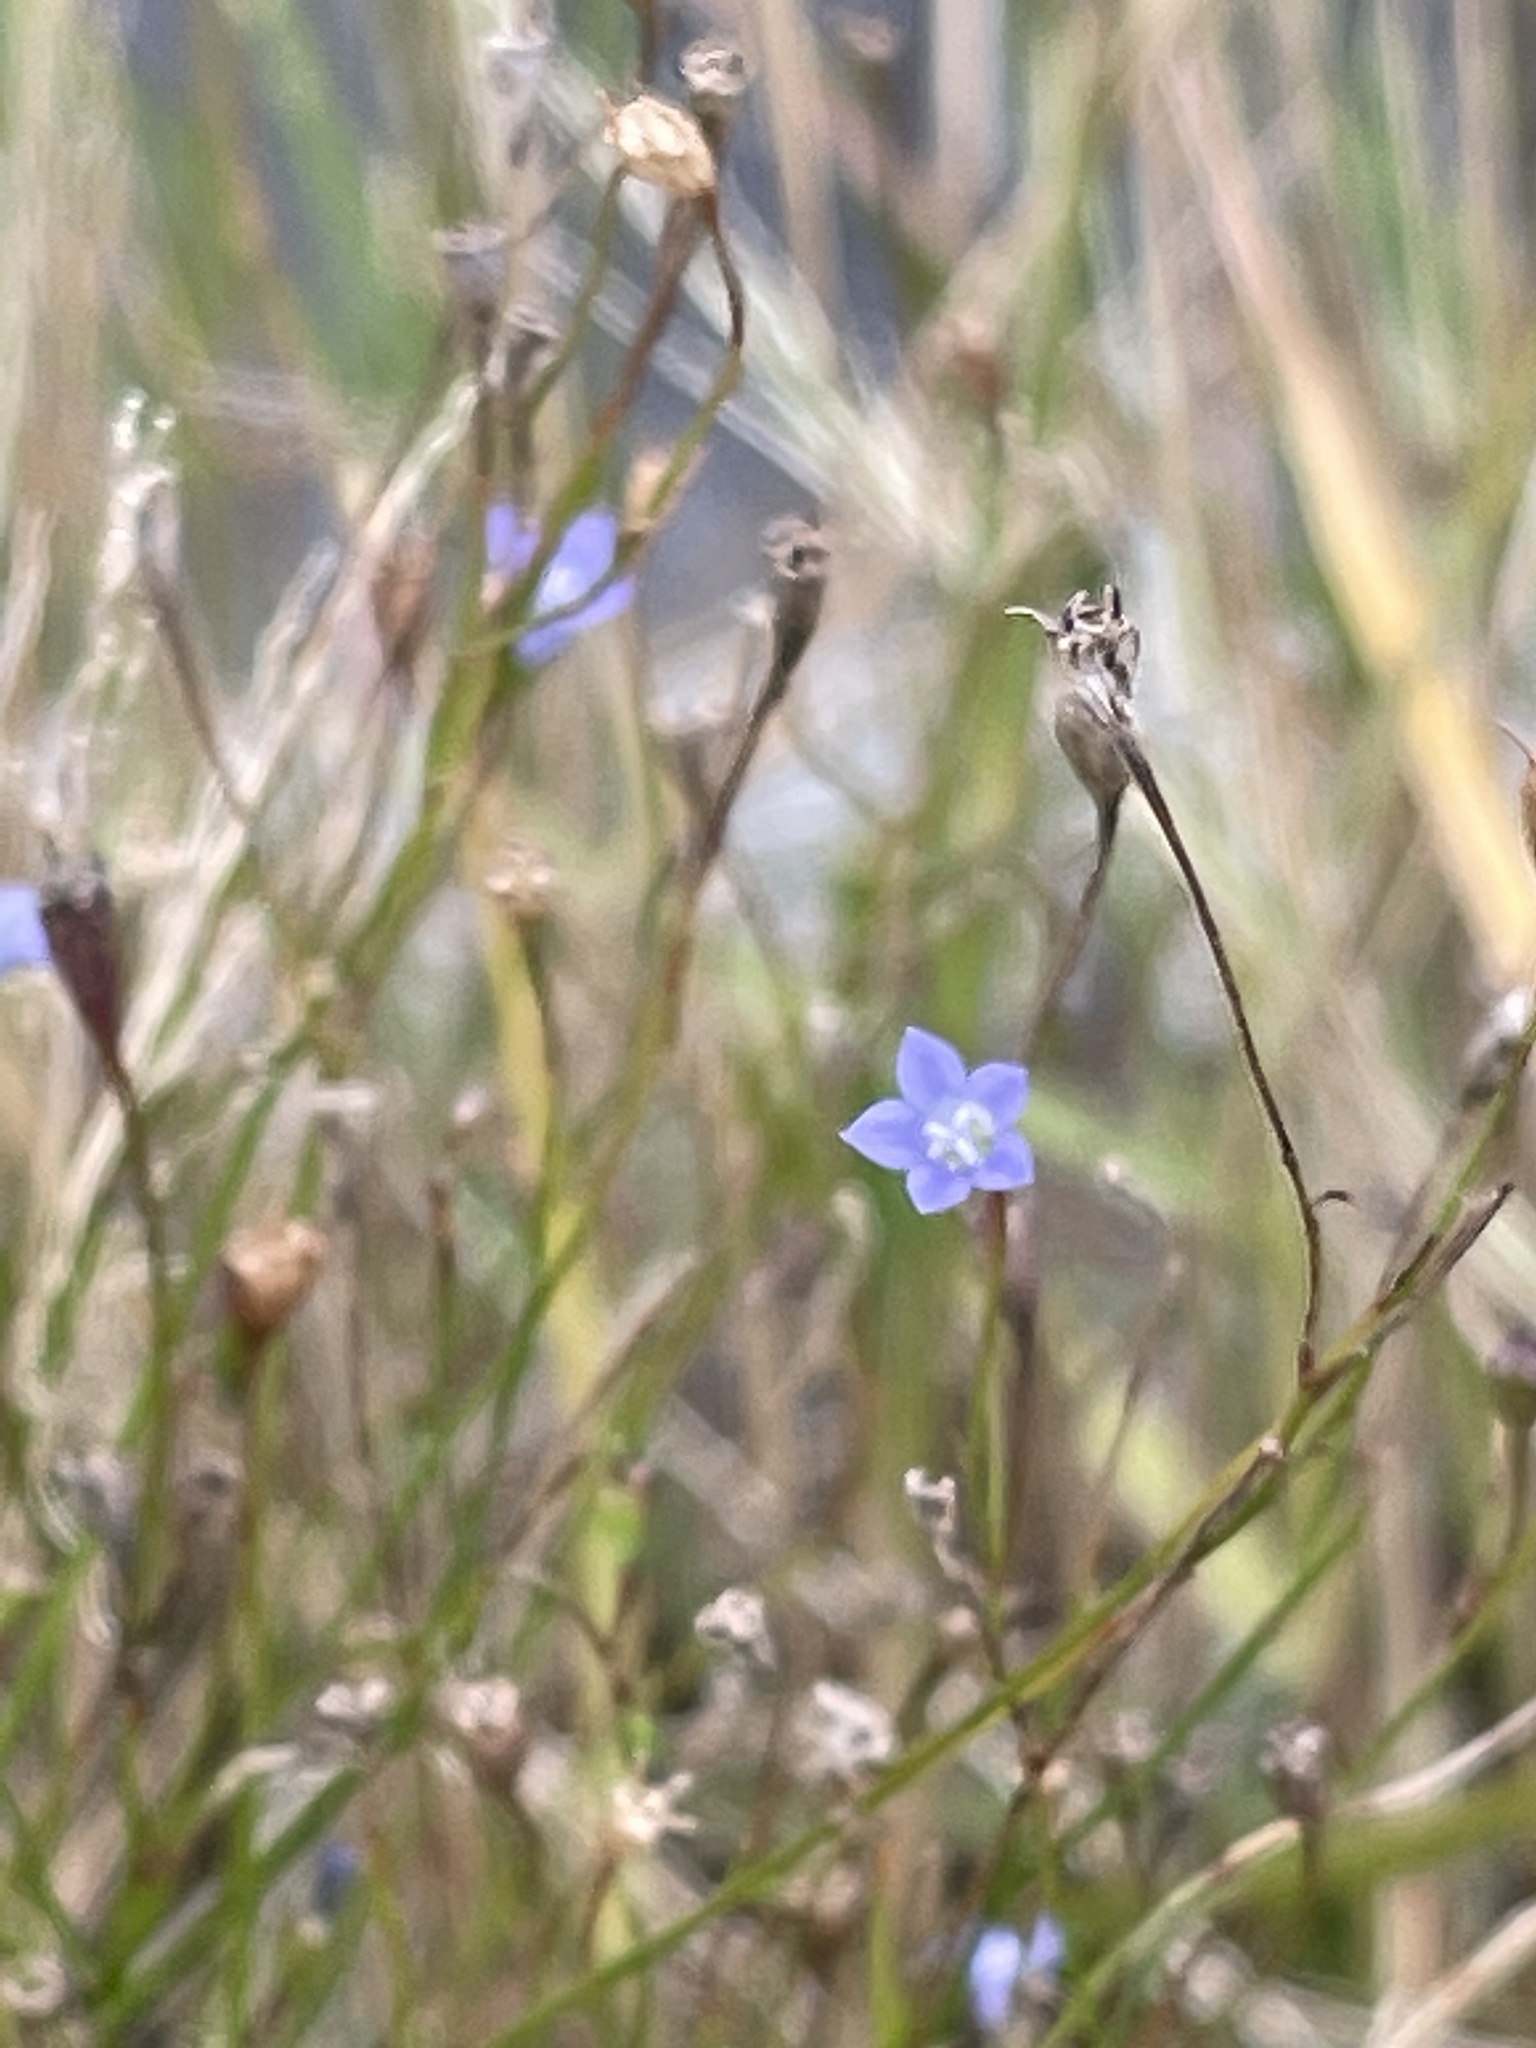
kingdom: Plantae
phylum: Tracheophyta
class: Magnoliopsida
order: Asterales
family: Campanulaceae
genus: Wahlenbergia
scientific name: Wahlenbergia marginata
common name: Southern rockbell
